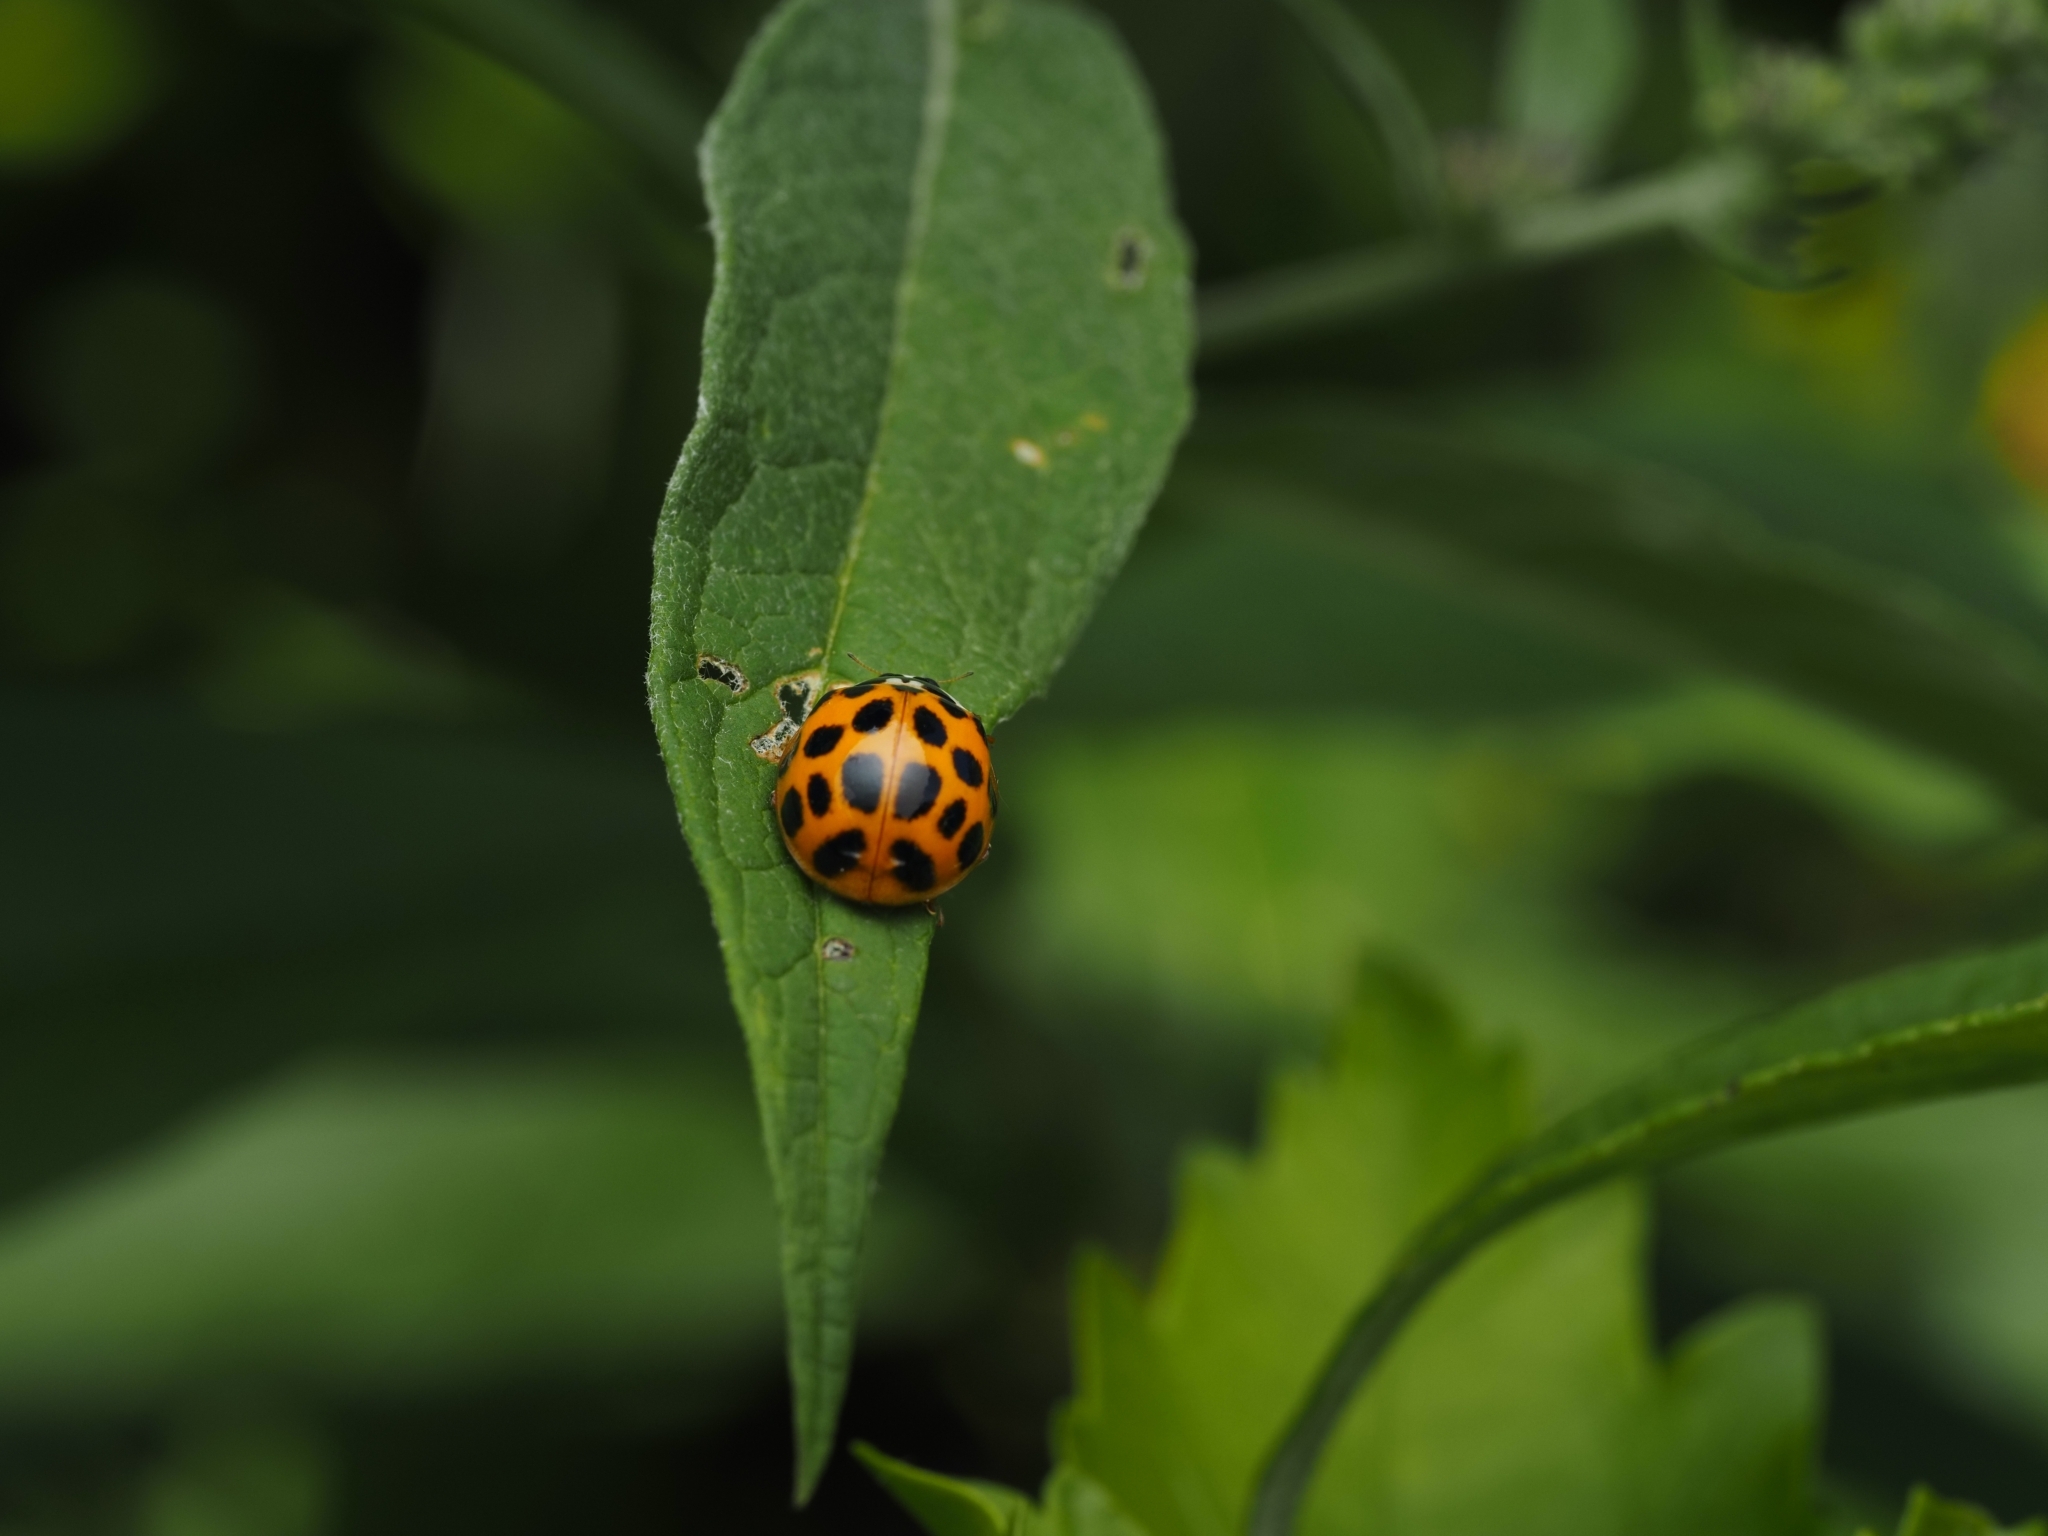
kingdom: Animalia
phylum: Arthropoda
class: Insecta
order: Coleoptera
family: Coccinellidae
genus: Harmonia
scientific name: Harmonia axyridis
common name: Harlequin ladybird
